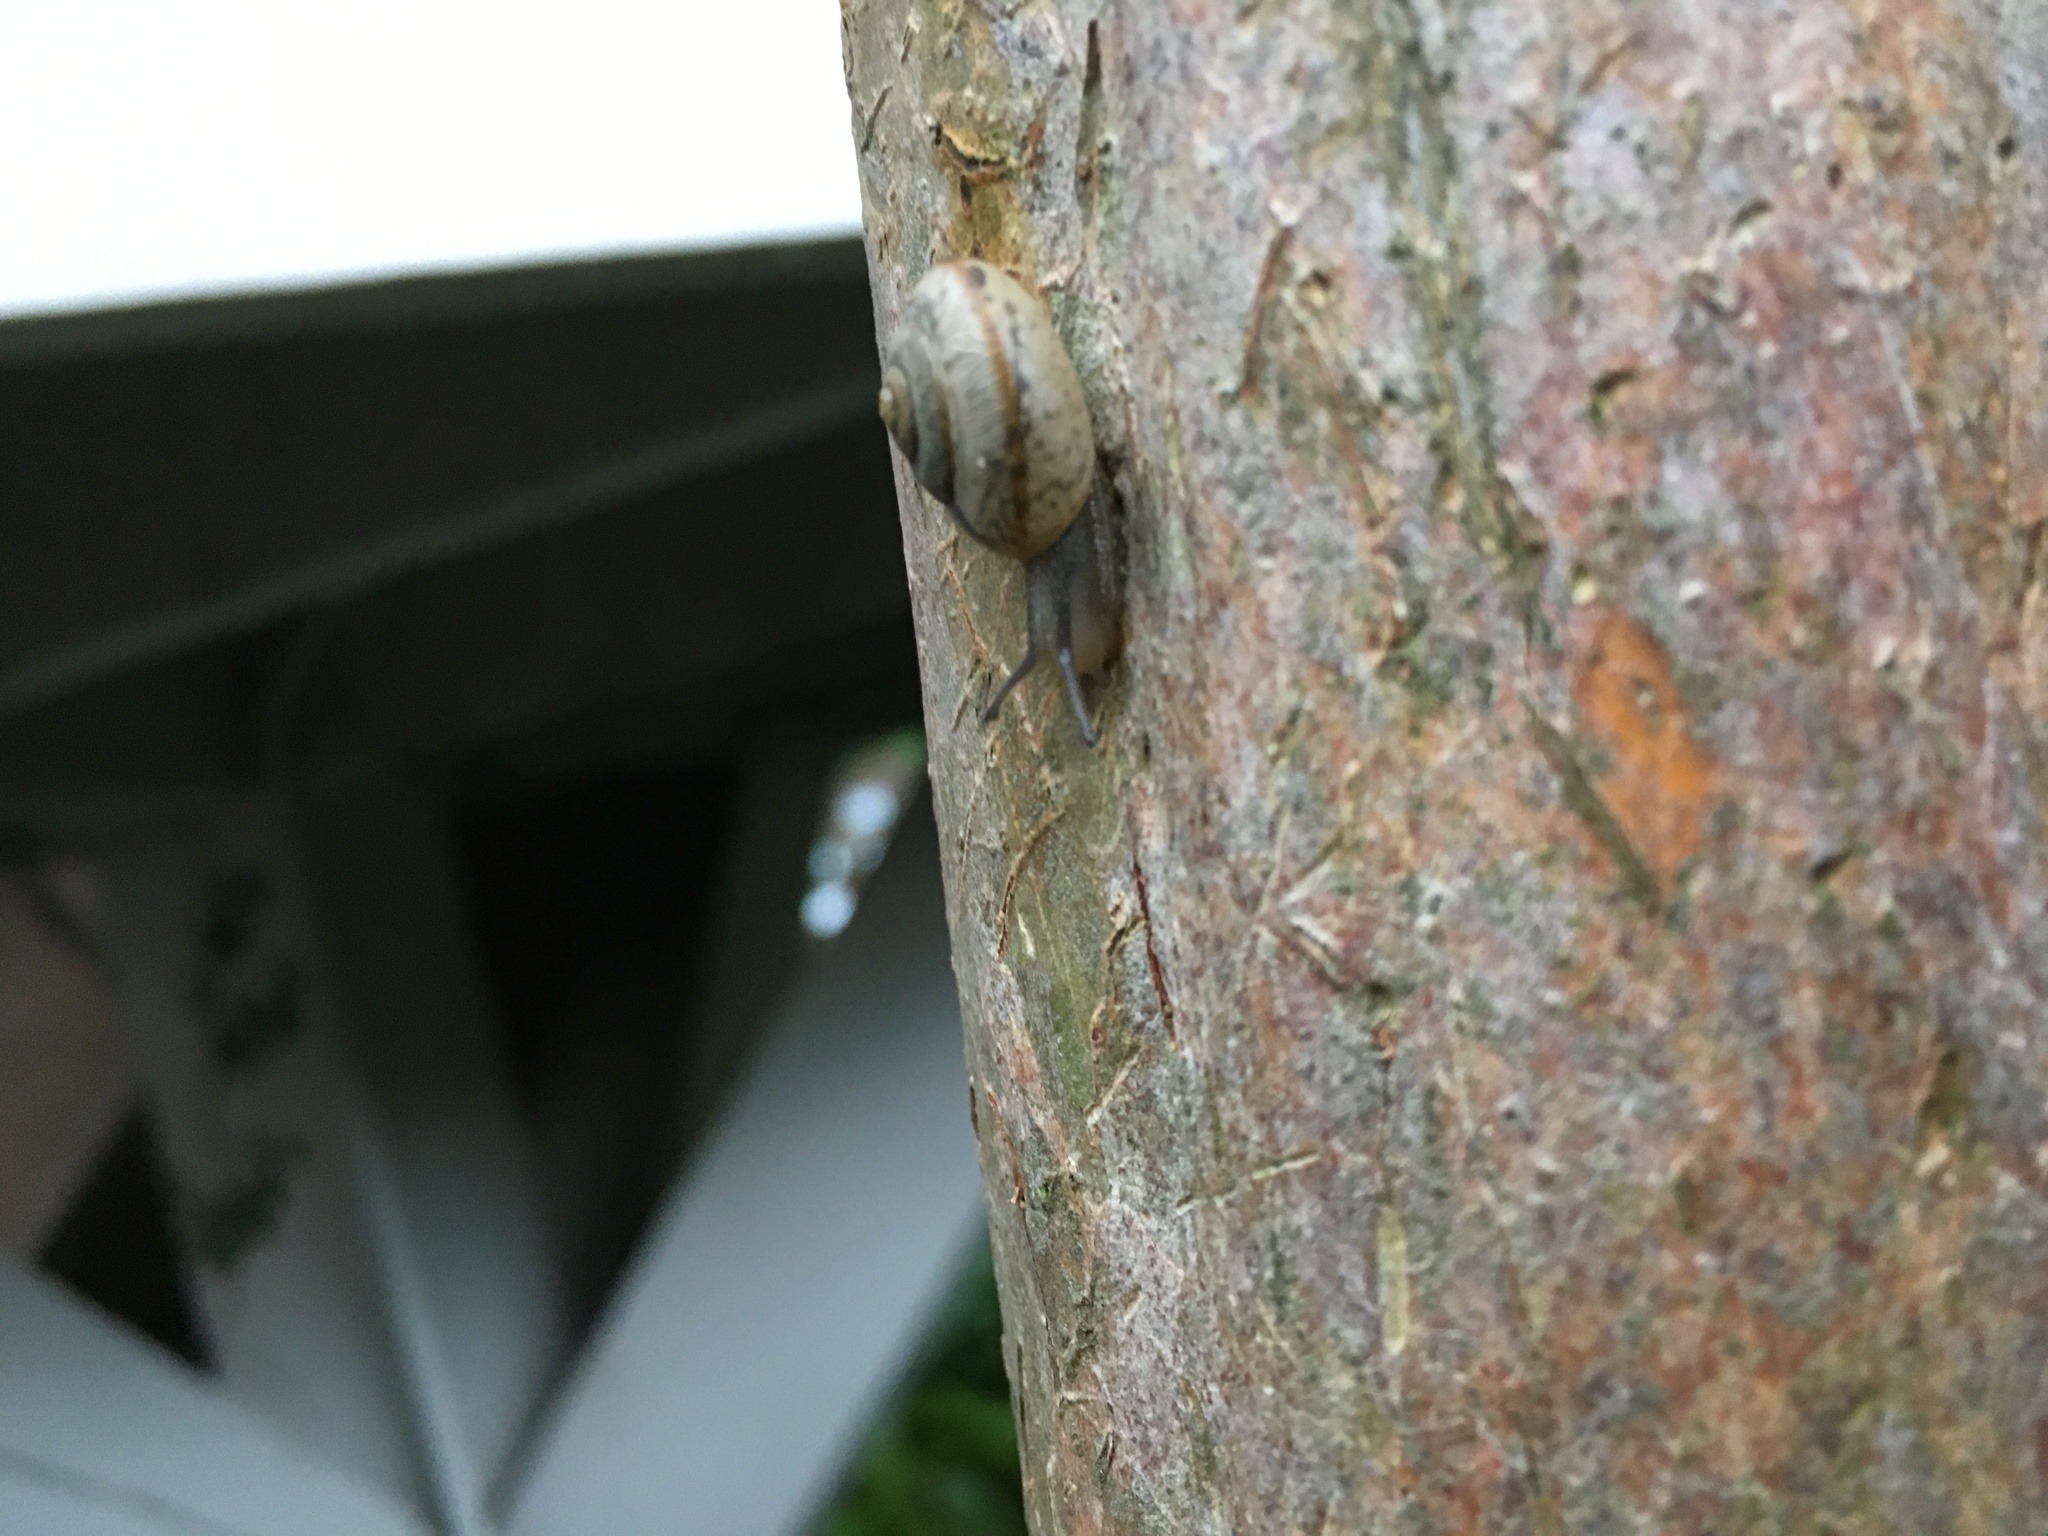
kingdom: Animalia
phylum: Mollusca
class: Gastropoda
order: Stylommatophora
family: Camaenidae
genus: Bradybaena
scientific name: Bradybaena similaris
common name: Asian trampsnail
